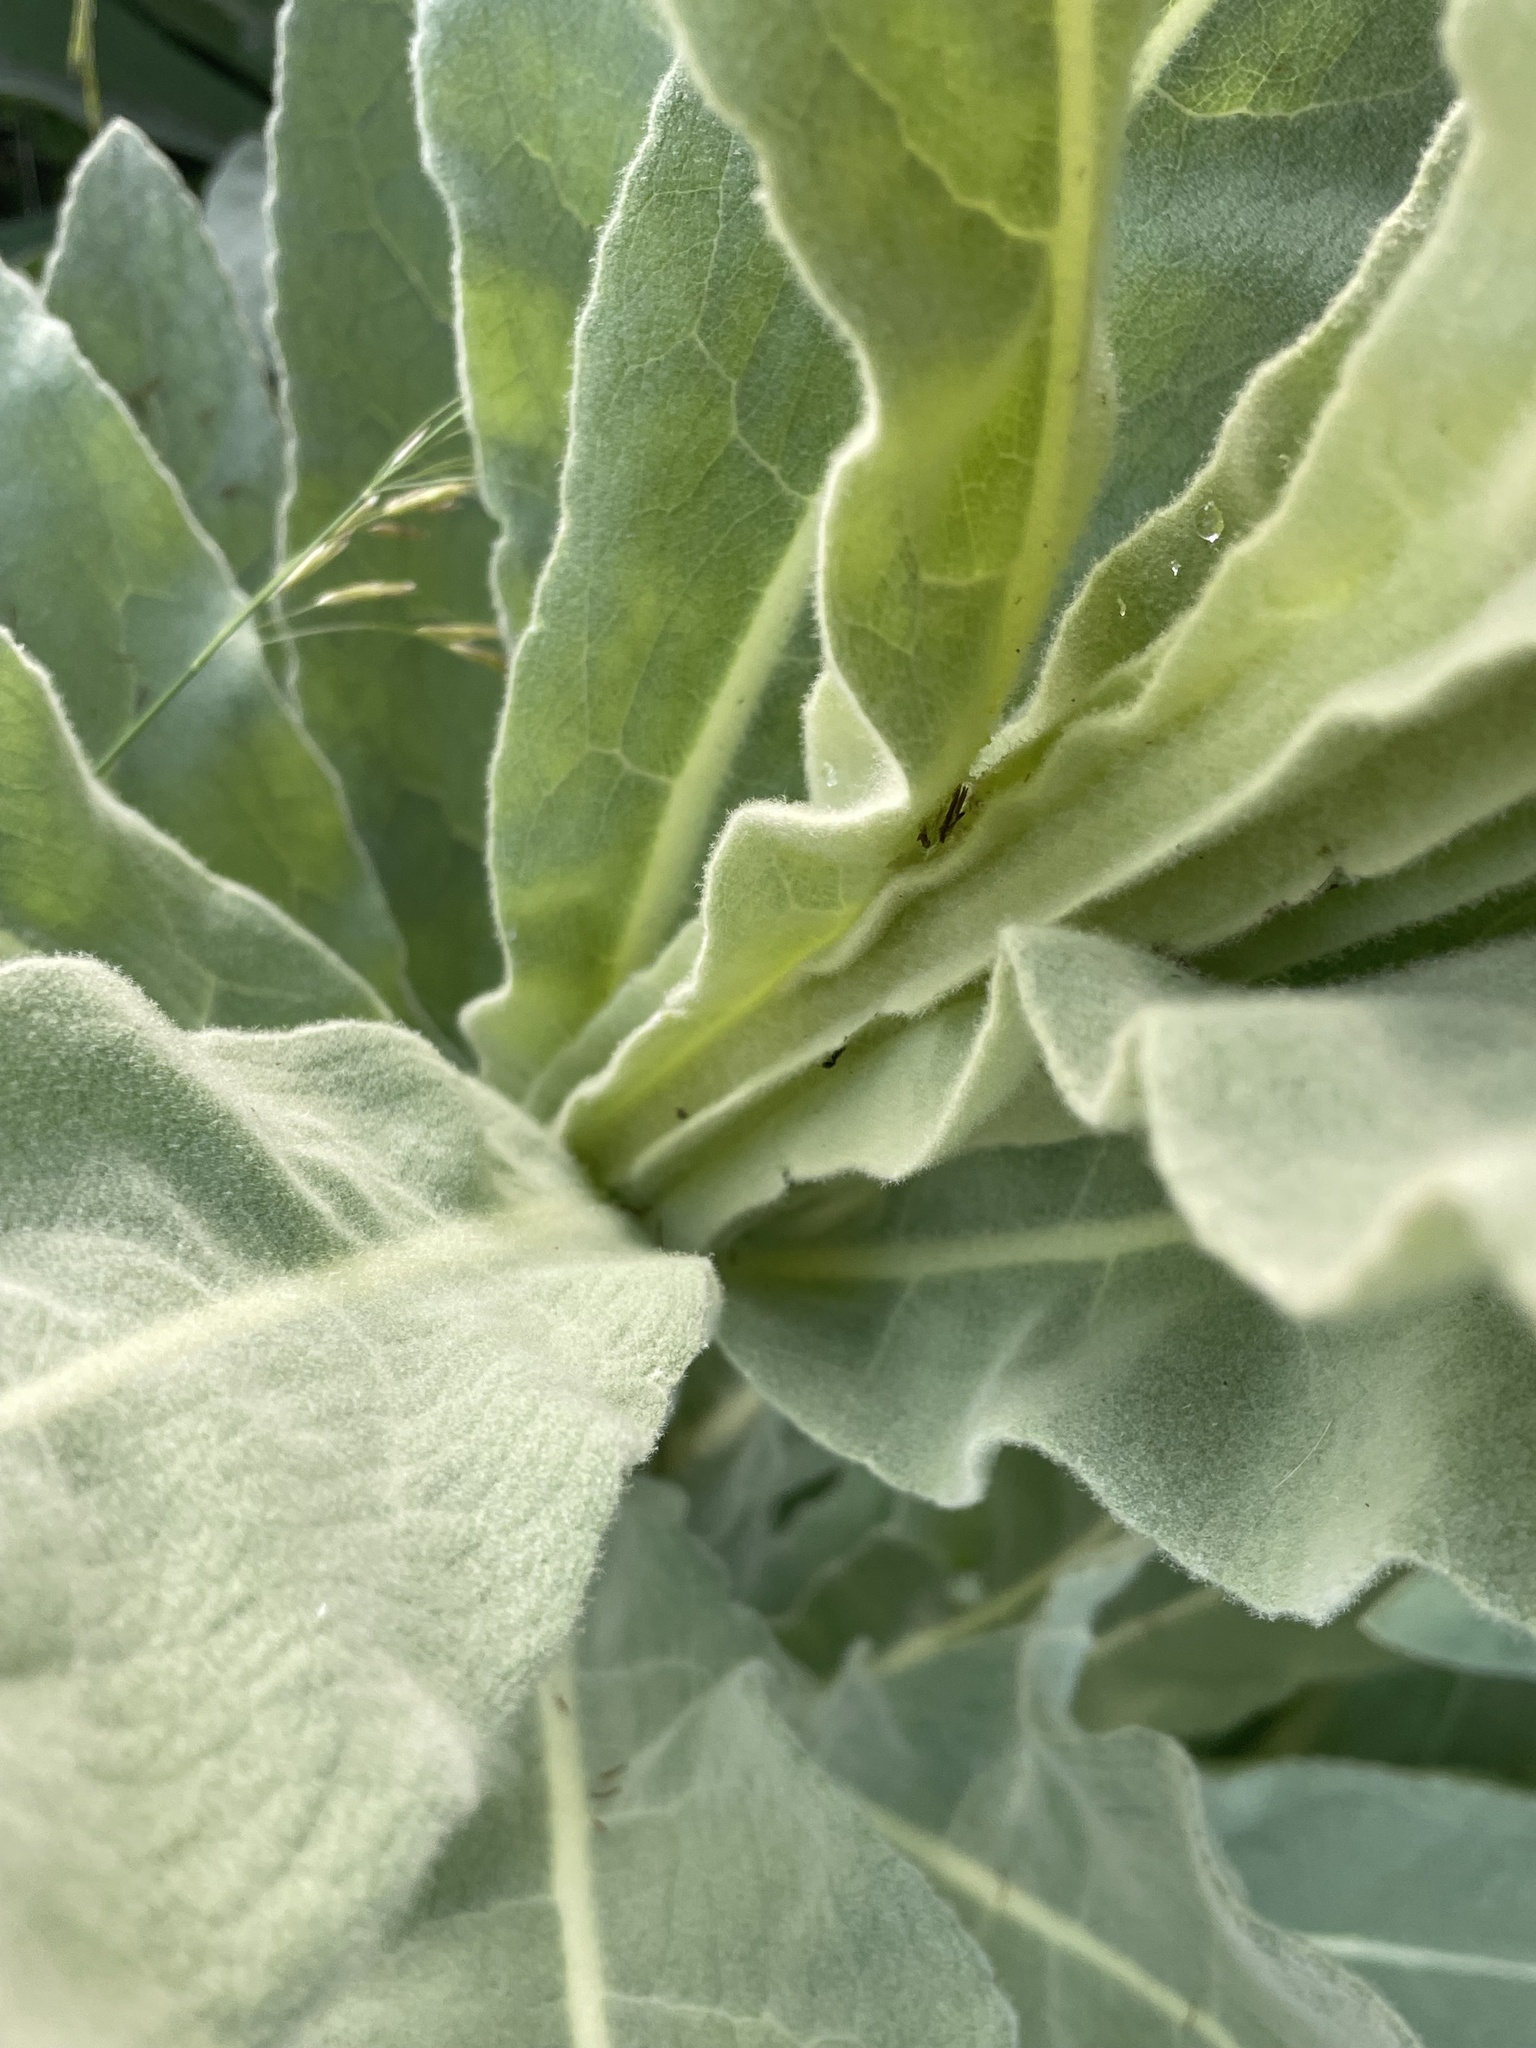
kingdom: Plantae
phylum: Tracheophyta
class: Magnoliopsida
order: Lamiales
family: Scrophulariaceae
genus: Verbascum
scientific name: Verbascum thapsus
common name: Common mullein
